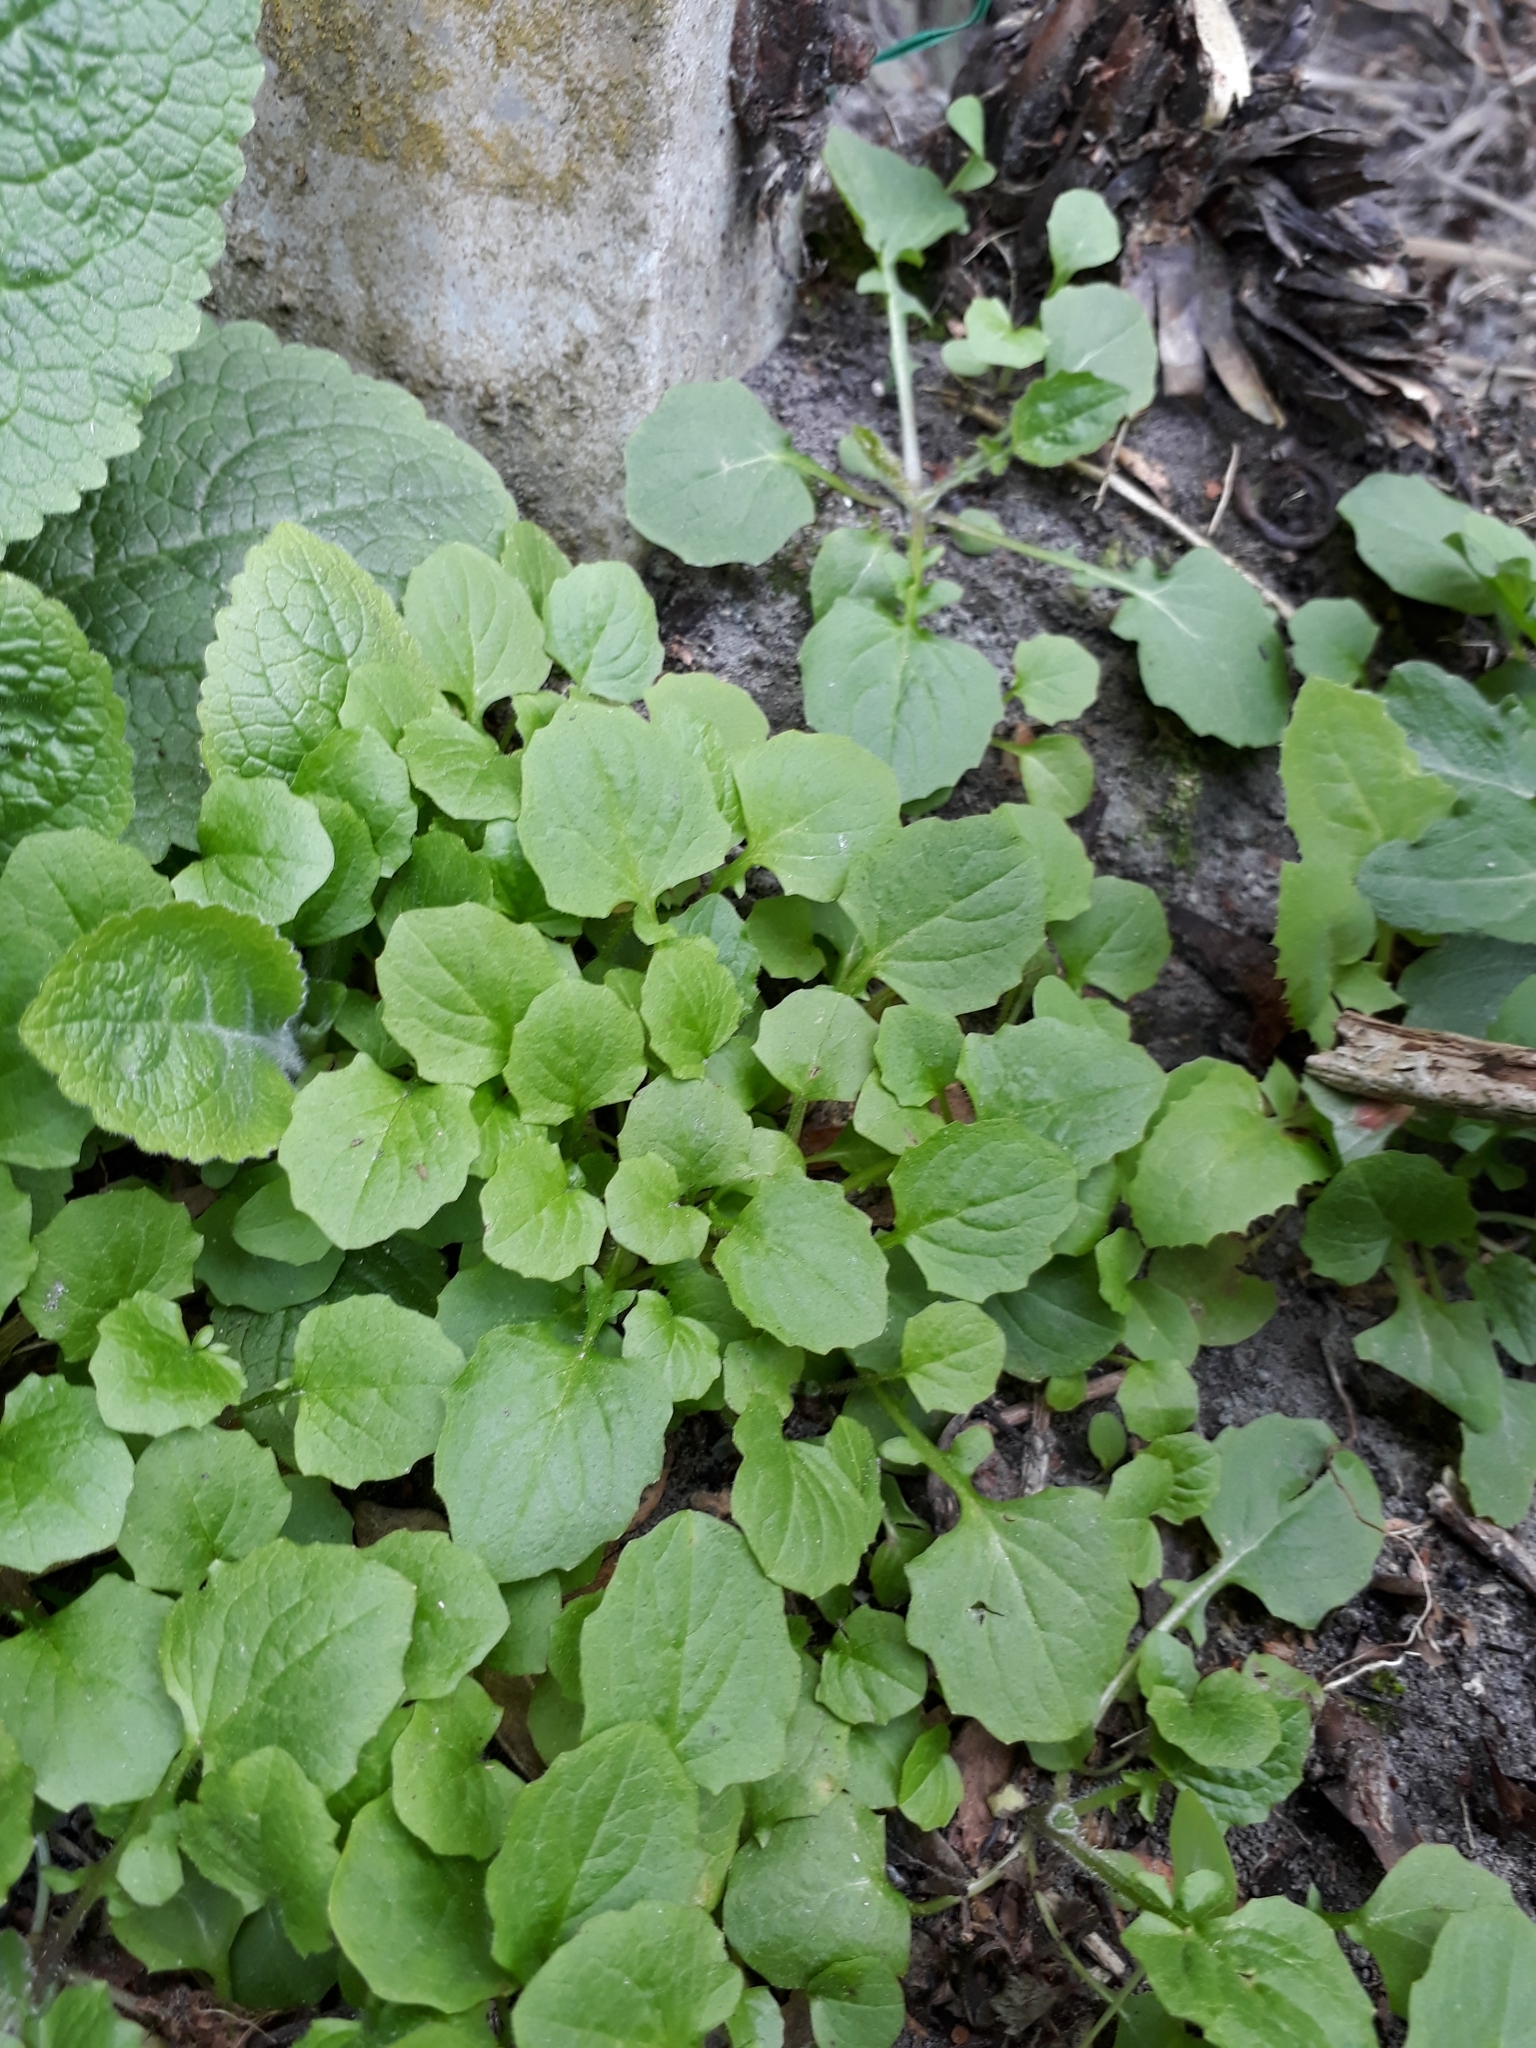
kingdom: Plantae
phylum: Tracheophyta
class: Magnoliopsida
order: Asterales
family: Asteraceae
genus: Lapsana
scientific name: Lapsana communis
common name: Nipplewort
